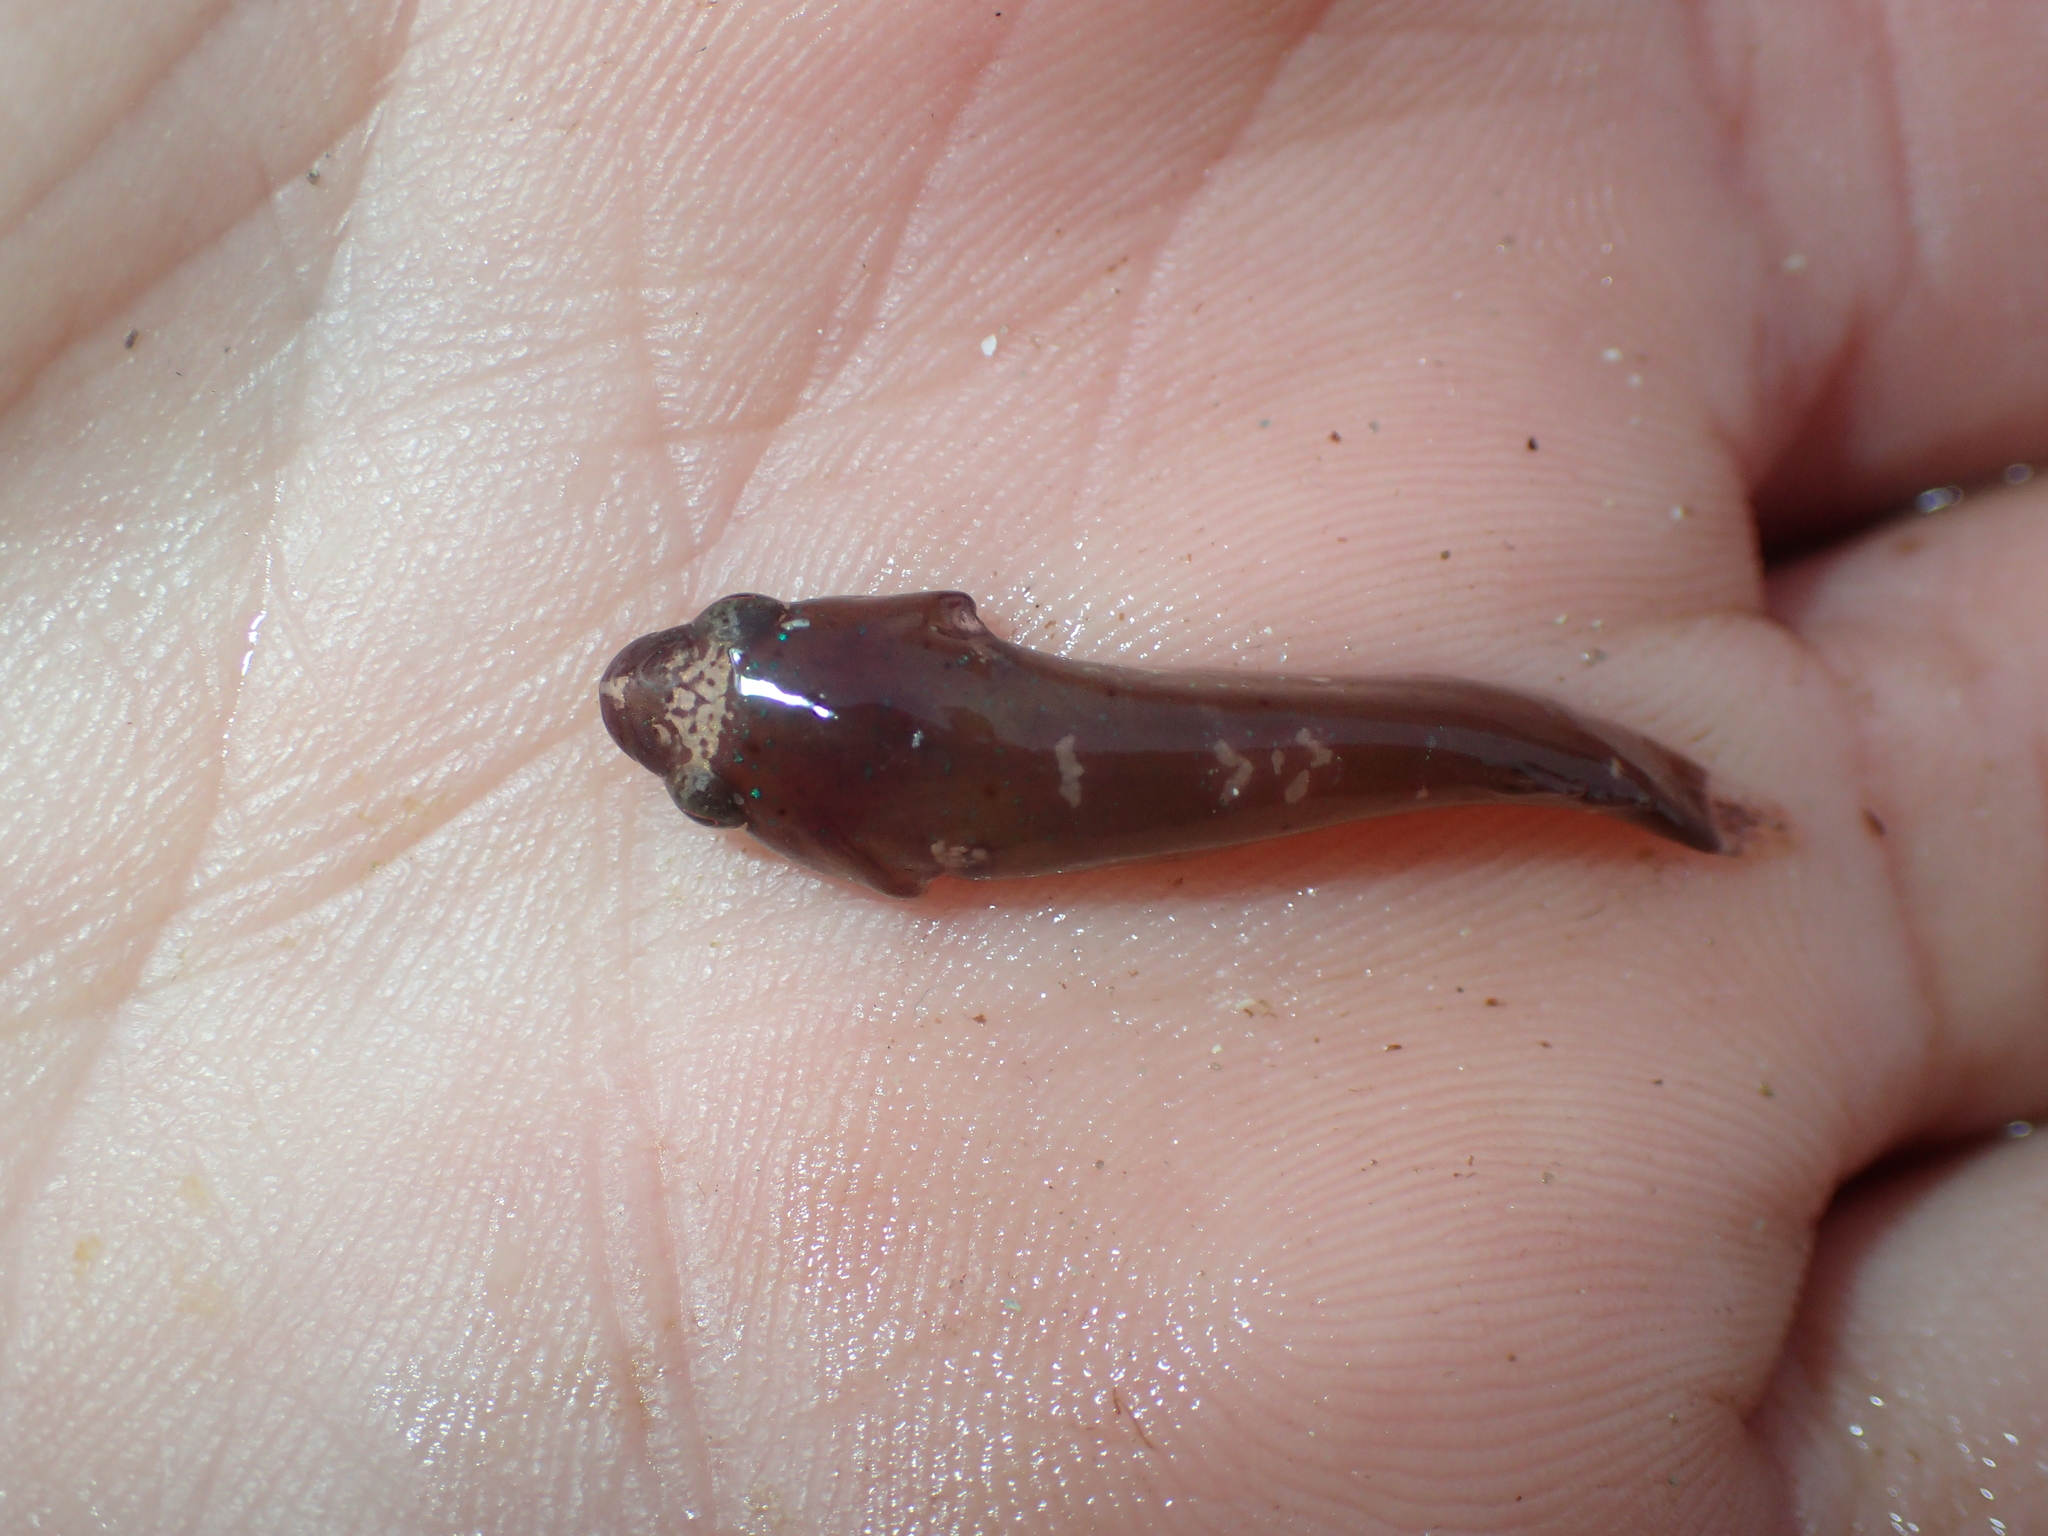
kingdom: Animalia
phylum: Chordata
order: Gobiesociformes
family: Gobiesocidae
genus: Apletodon
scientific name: Apletodon dentatus
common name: Small-headed clingfish
